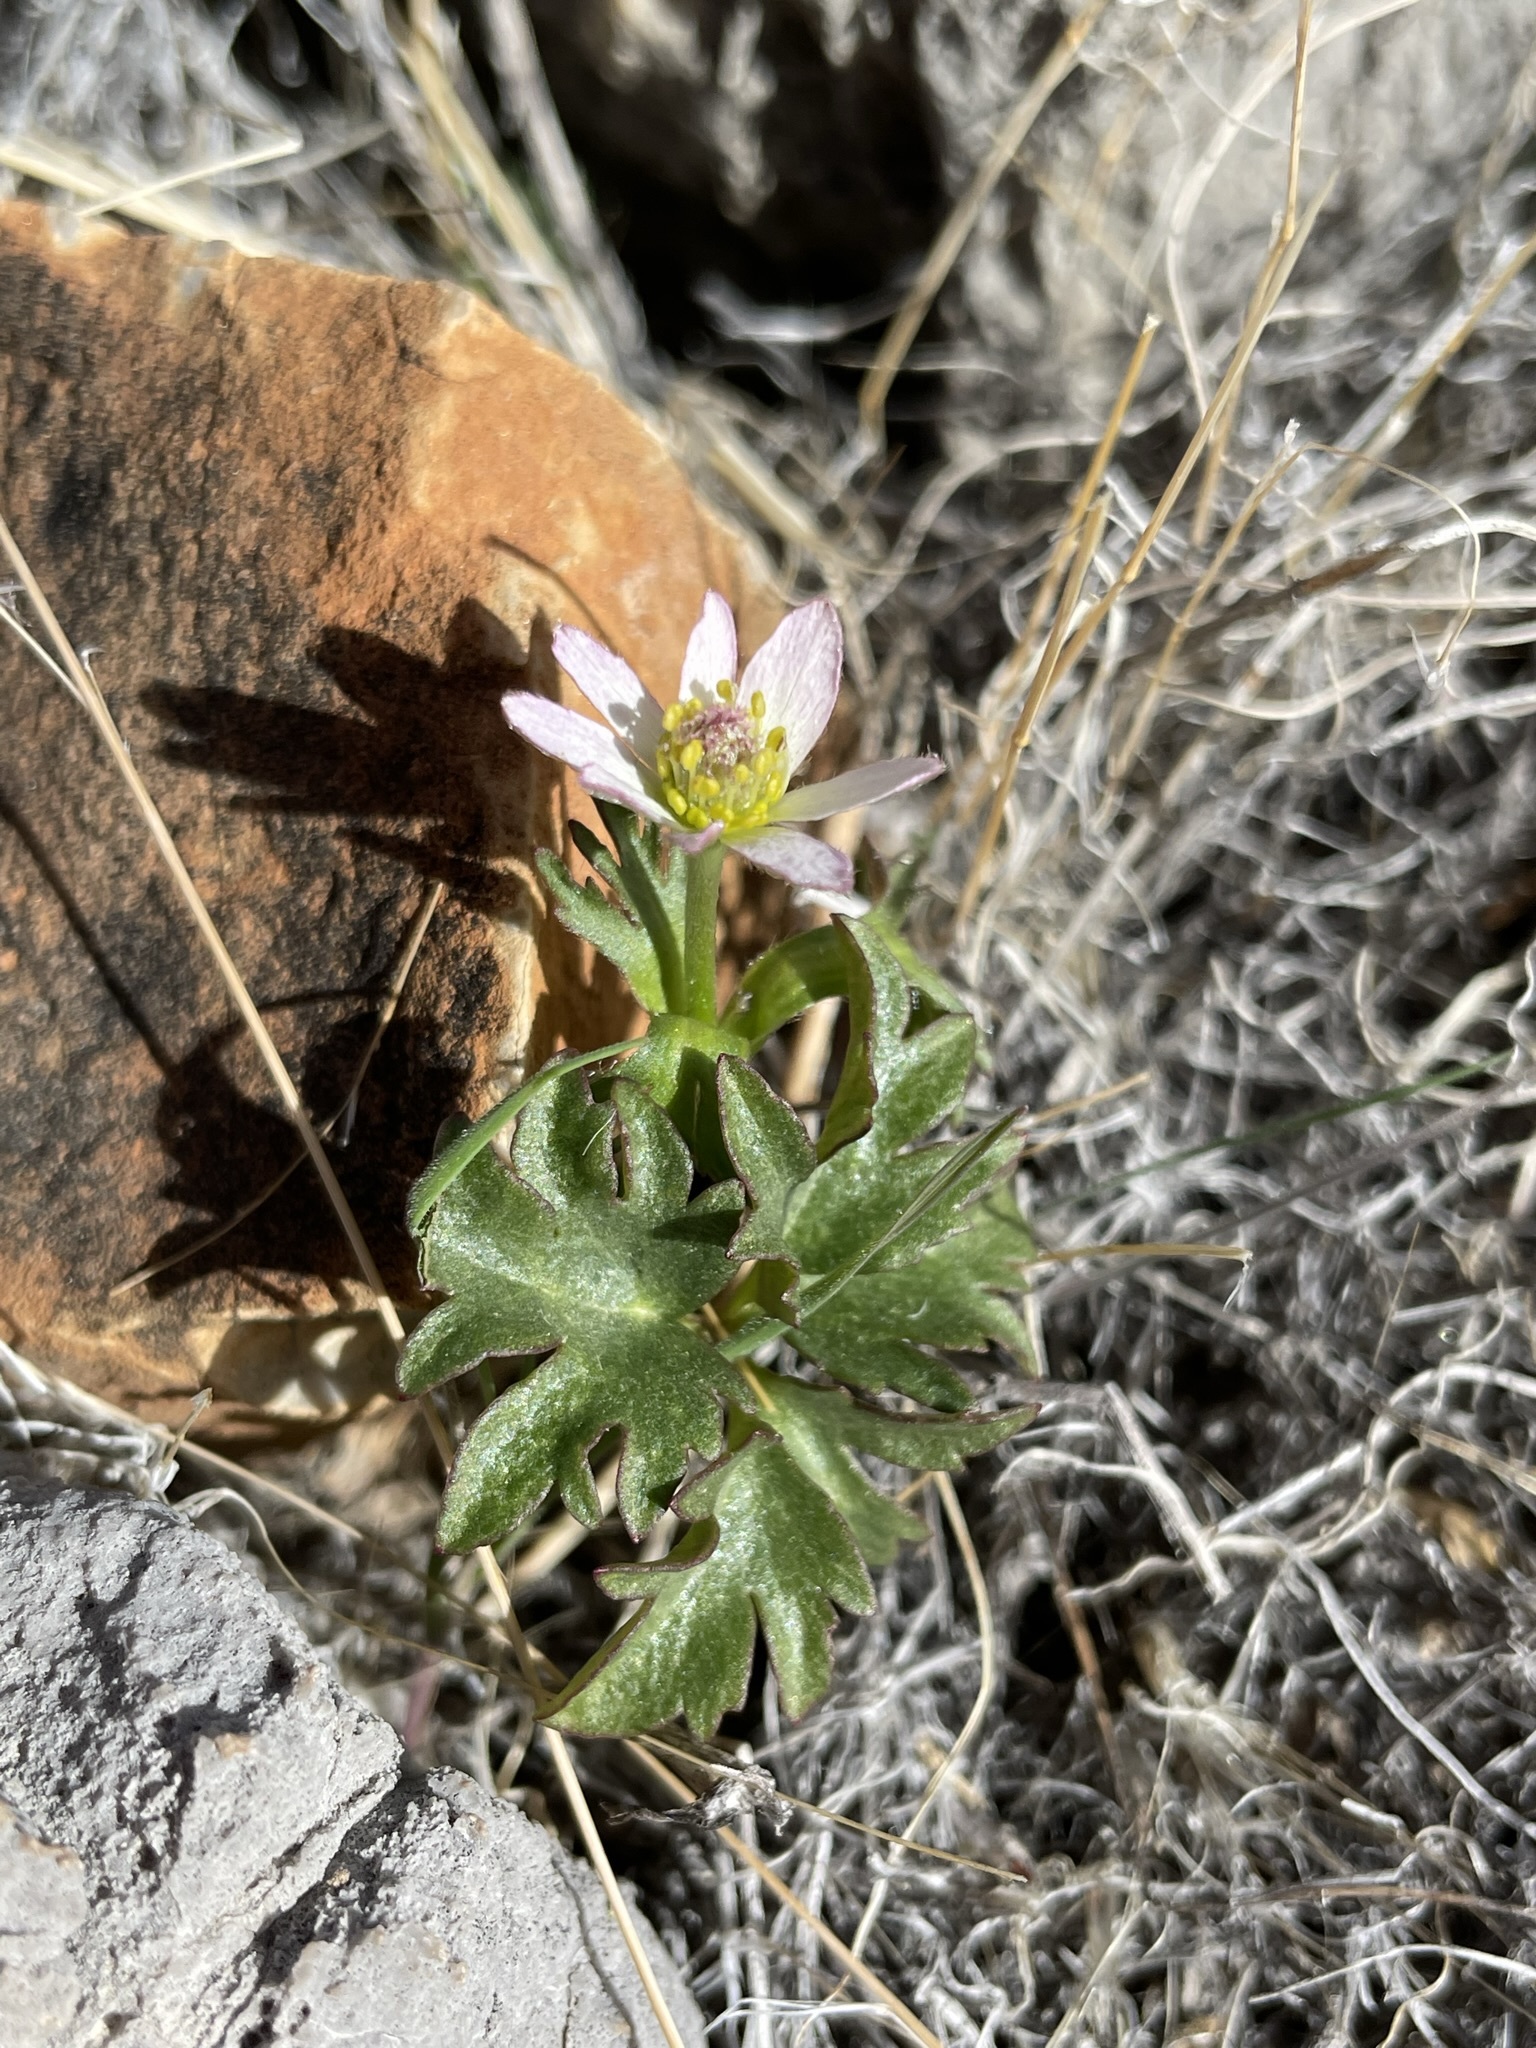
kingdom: Plantae
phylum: Tracheophyta
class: Magnoliopsida
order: Ranunculales
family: Ranunculaceae
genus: Anemone
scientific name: Anemone tuberosa
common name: Desert anemone
